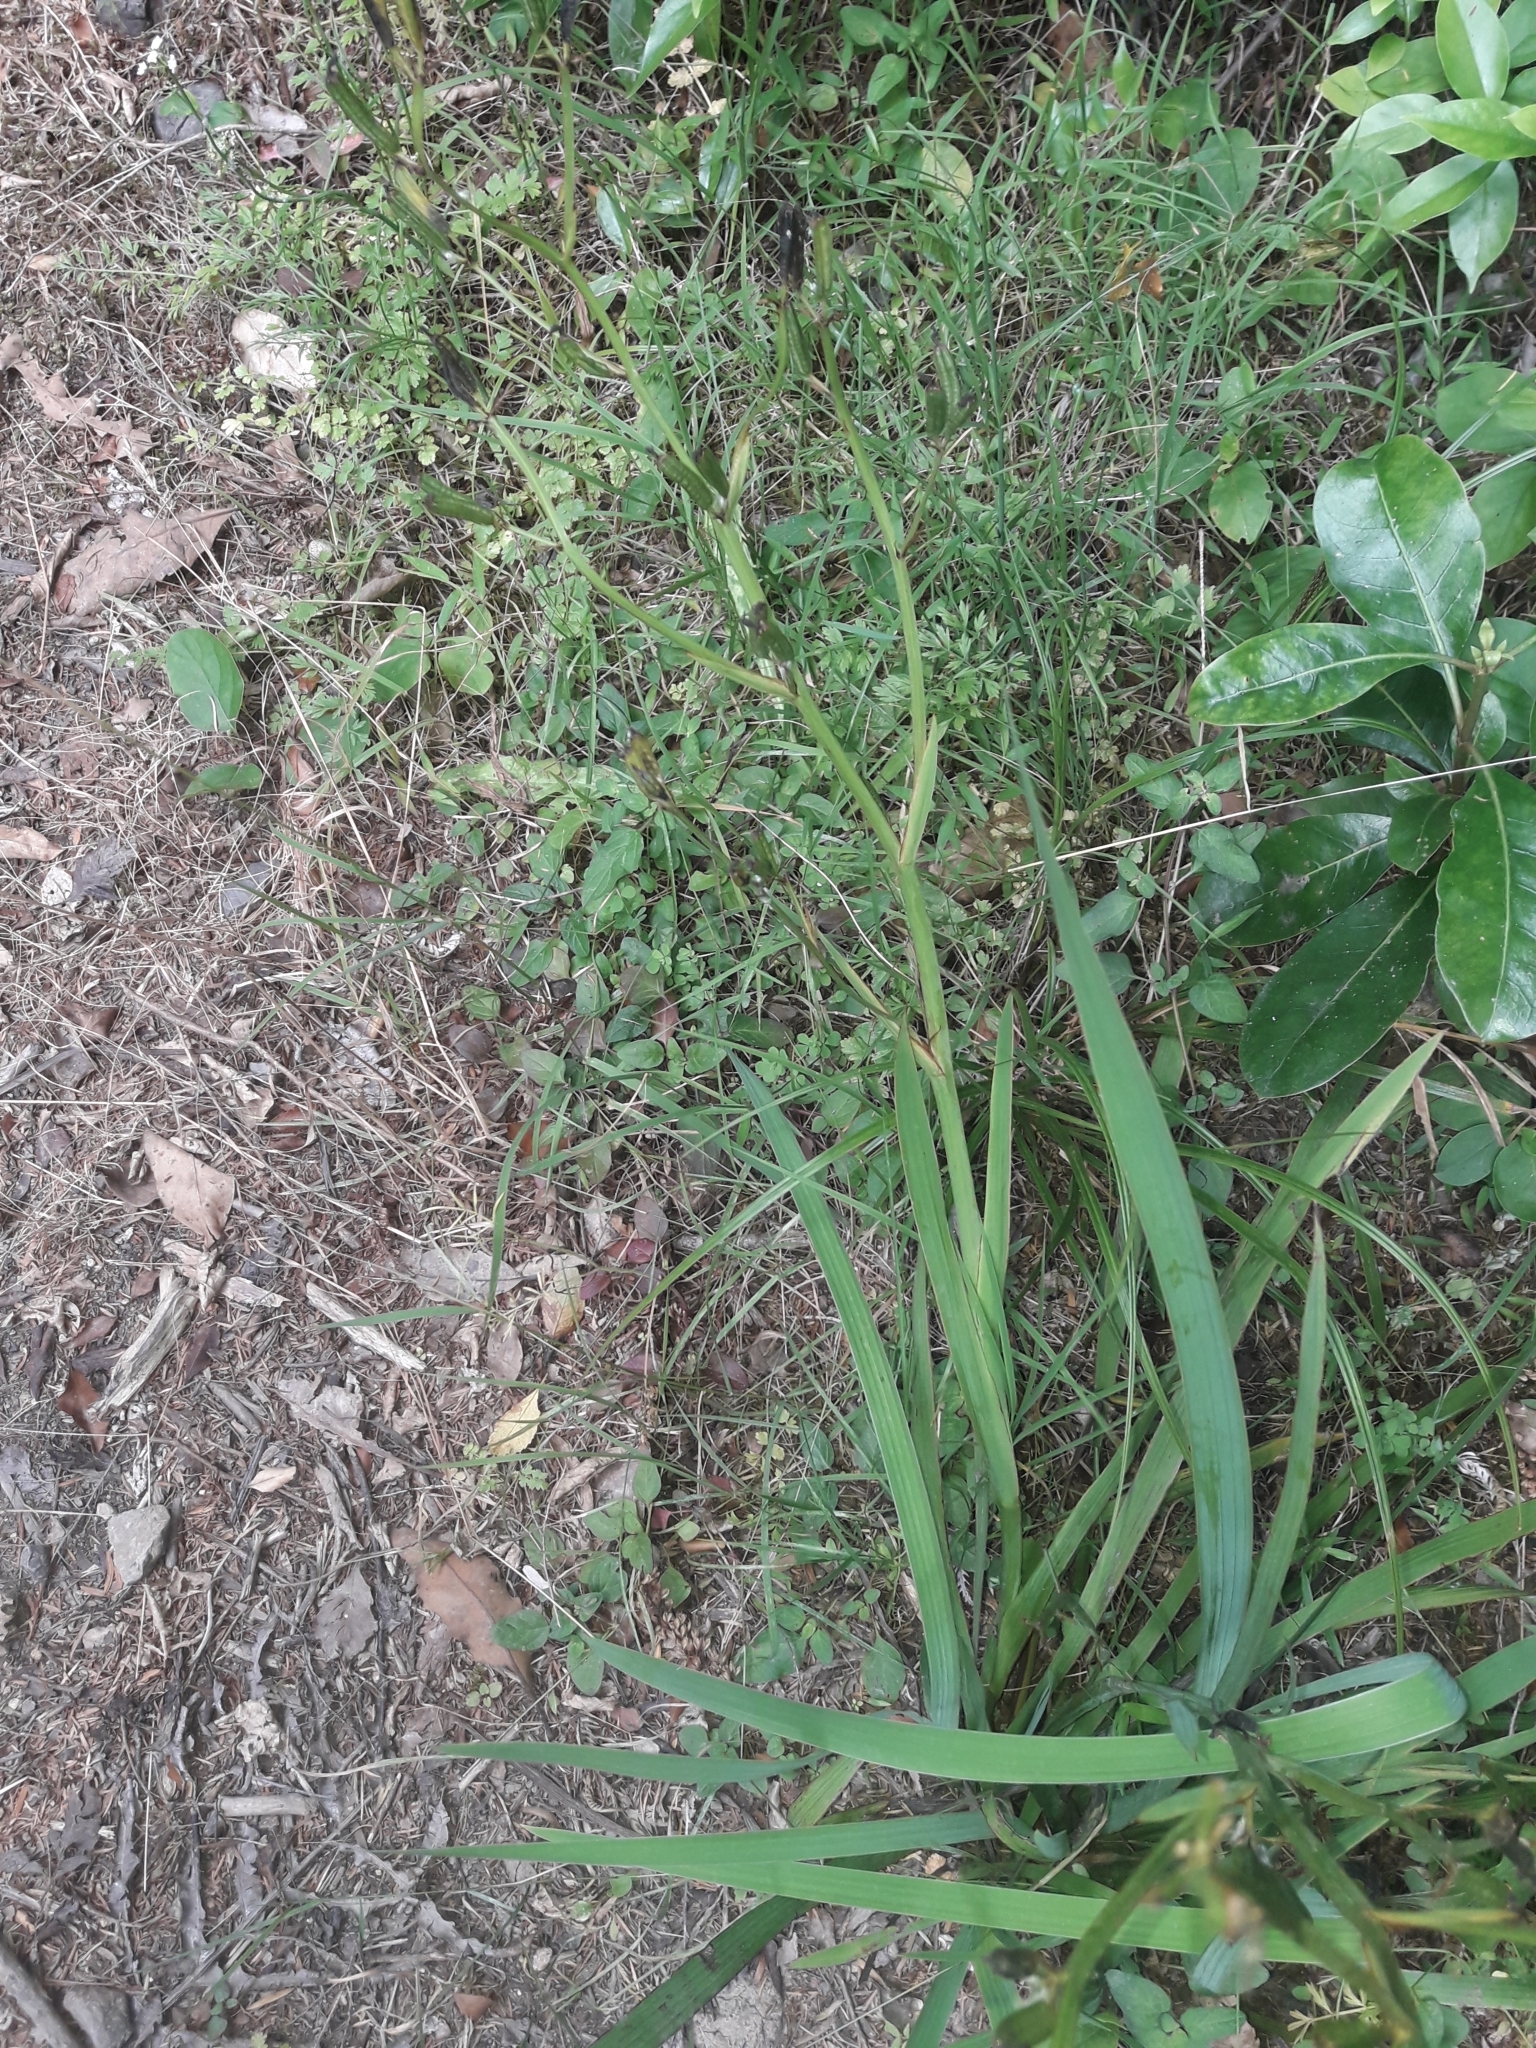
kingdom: Plantae
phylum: Tracheophyta
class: Liliopsida
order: Asparagales
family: Iridaceae
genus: Aristea
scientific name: Aristea ecklonii
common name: Blue corn-lily
